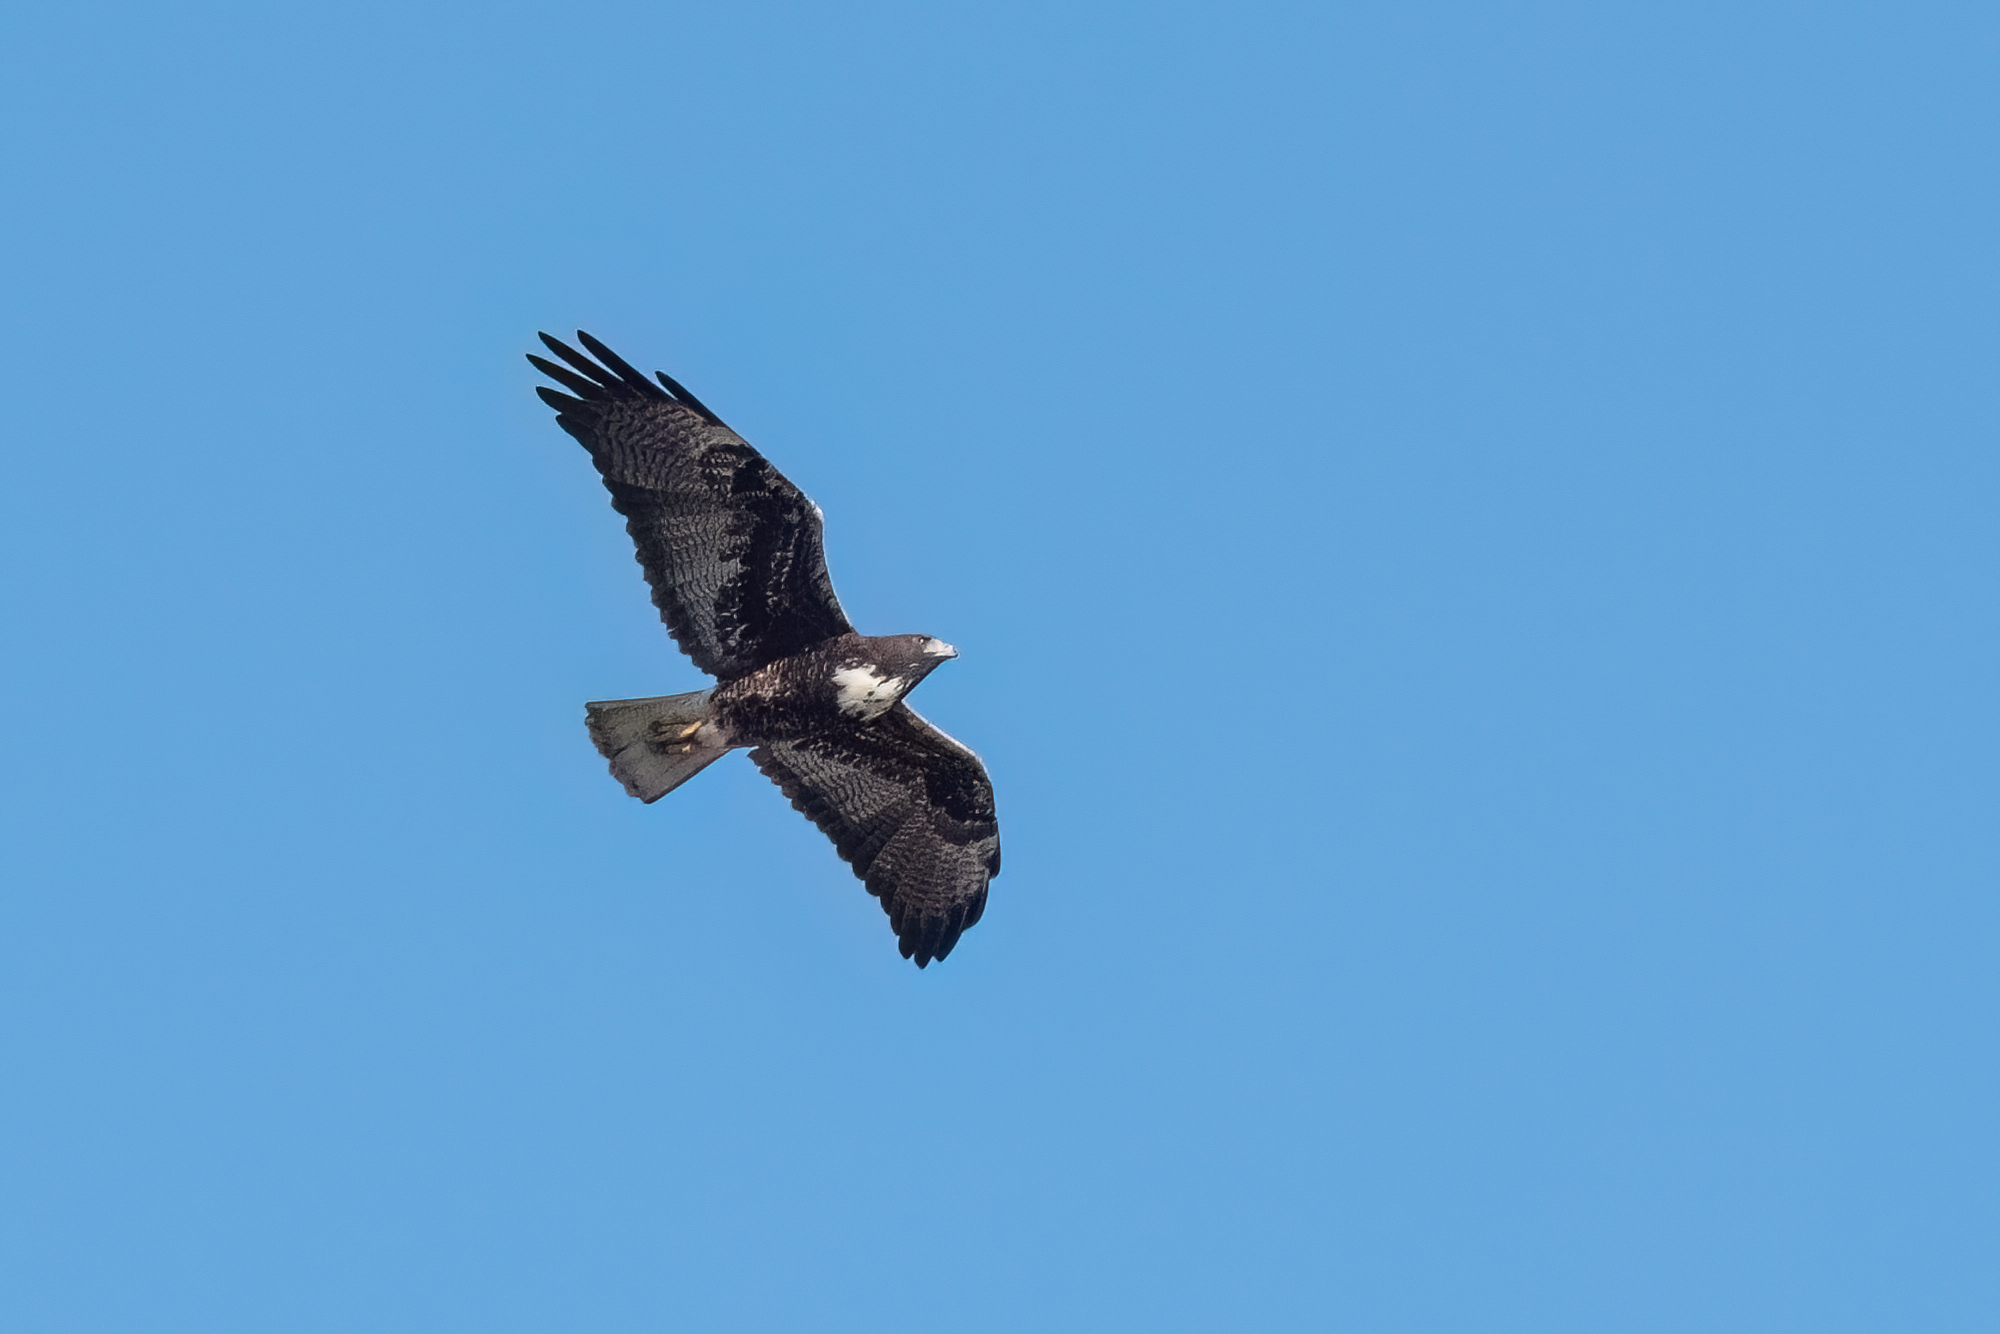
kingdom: Animalia
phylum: Chordata
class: Aves
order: Accipitriformes
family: Accipitridae
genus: Buteo
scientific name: Buteo albicaudatus
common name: White-tailed hawk
